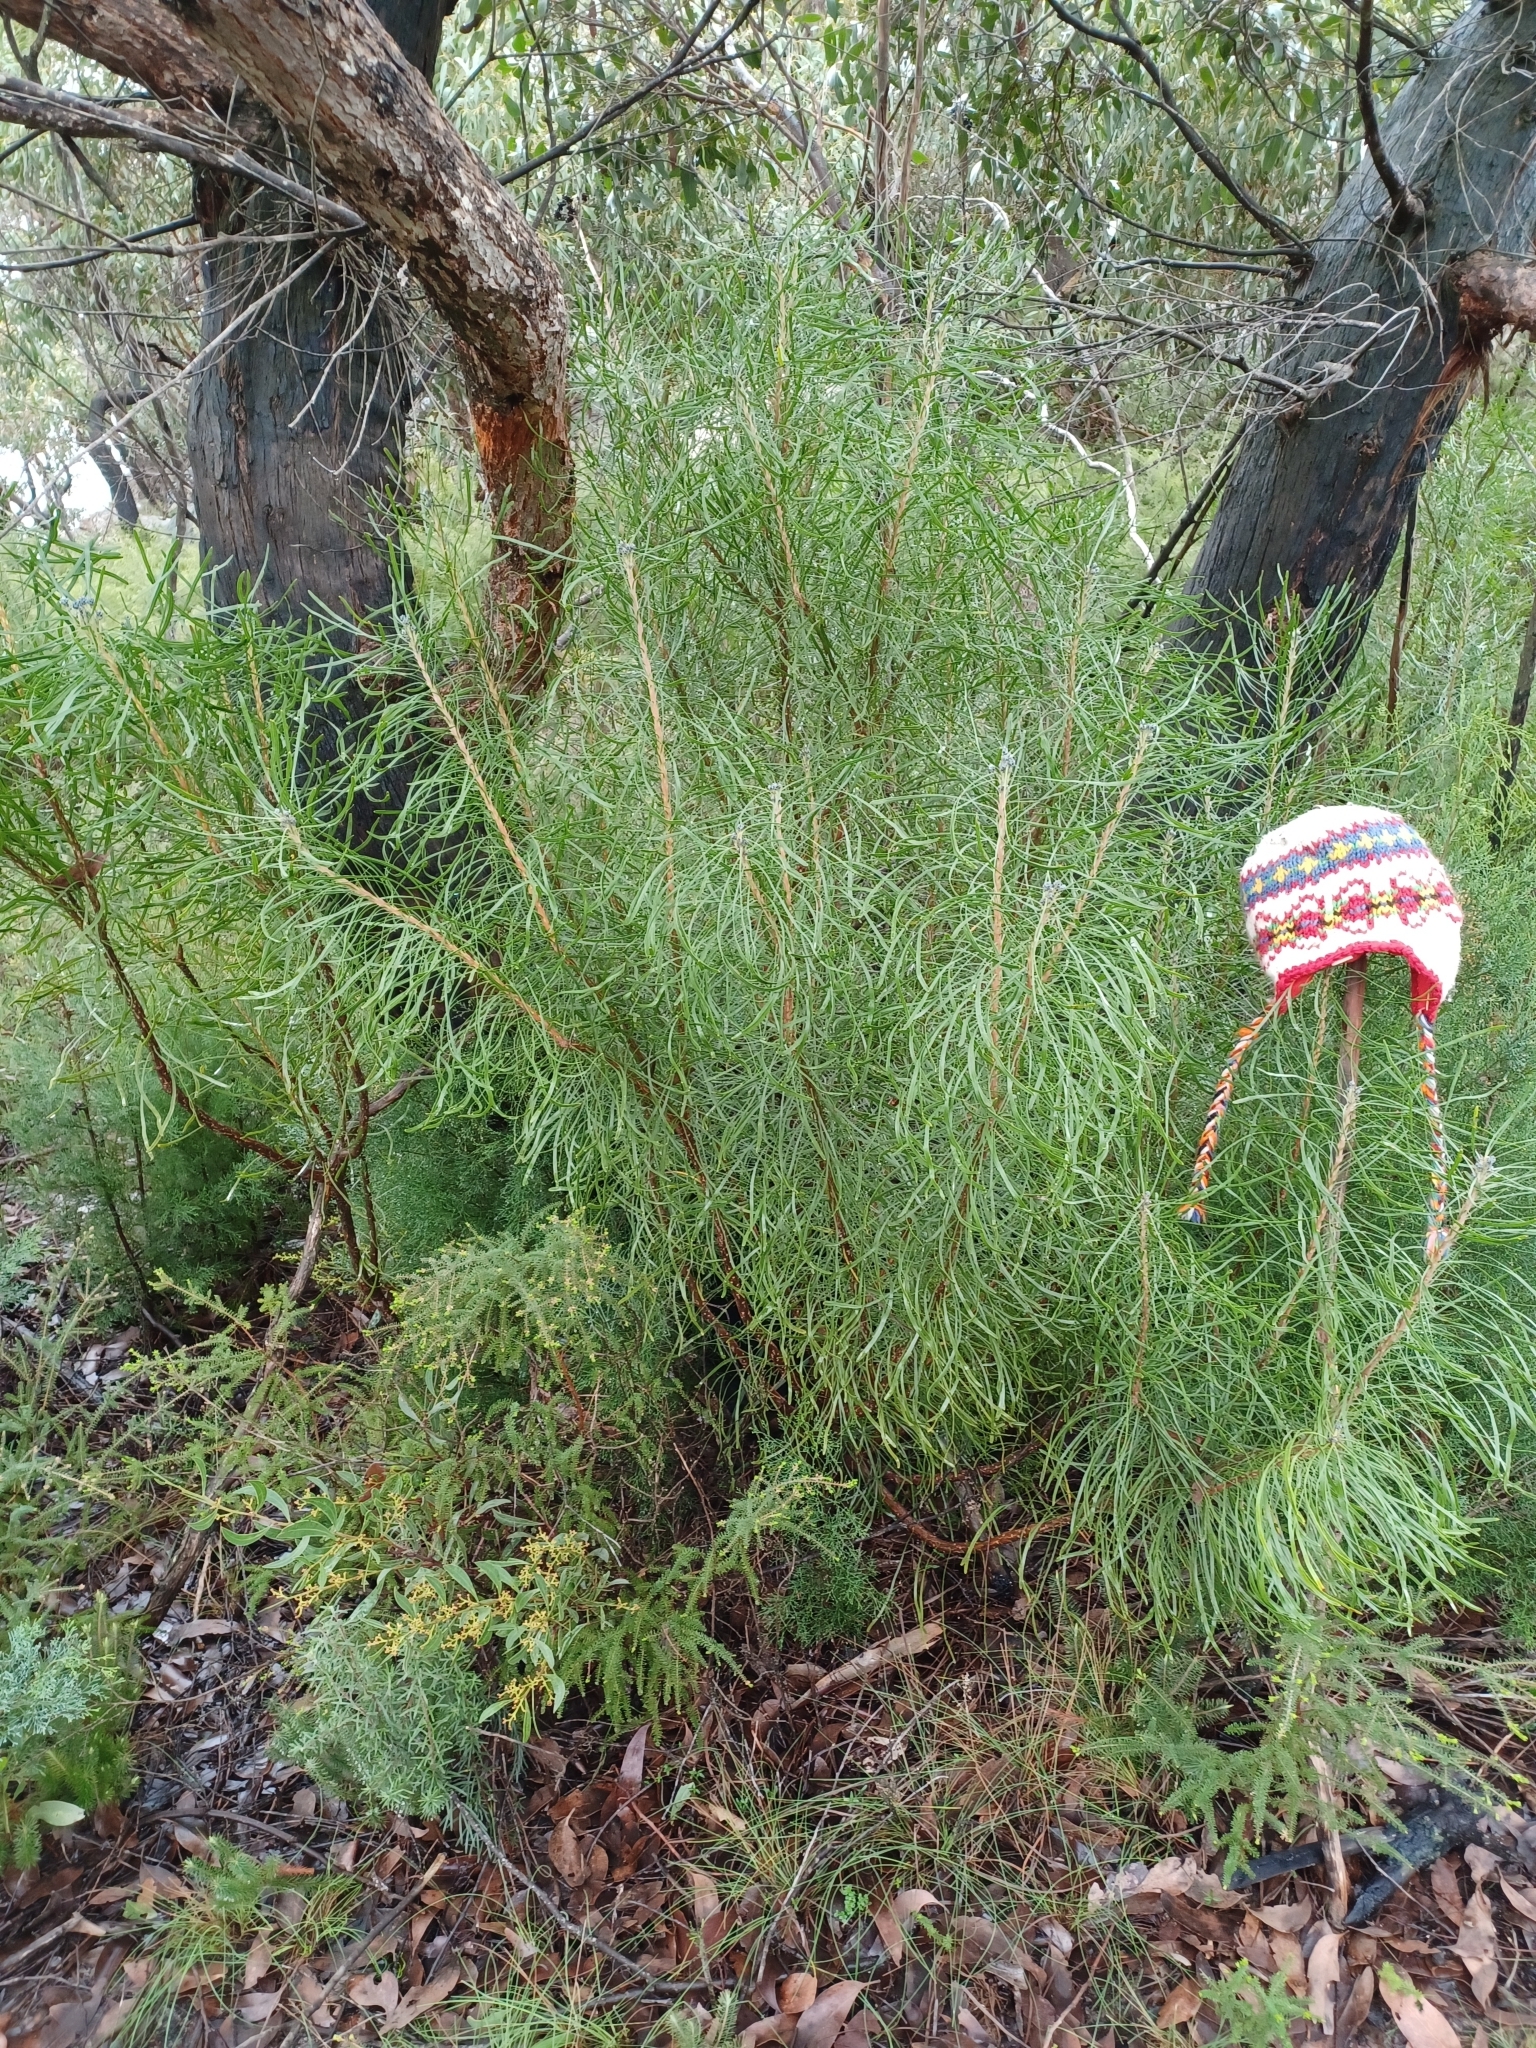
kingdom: Plantae
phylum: Tracheophyta
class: Magnoliopsida
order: Proteales
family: Proteaceae
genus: Conospermum
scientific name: Conospermum mitchellii
